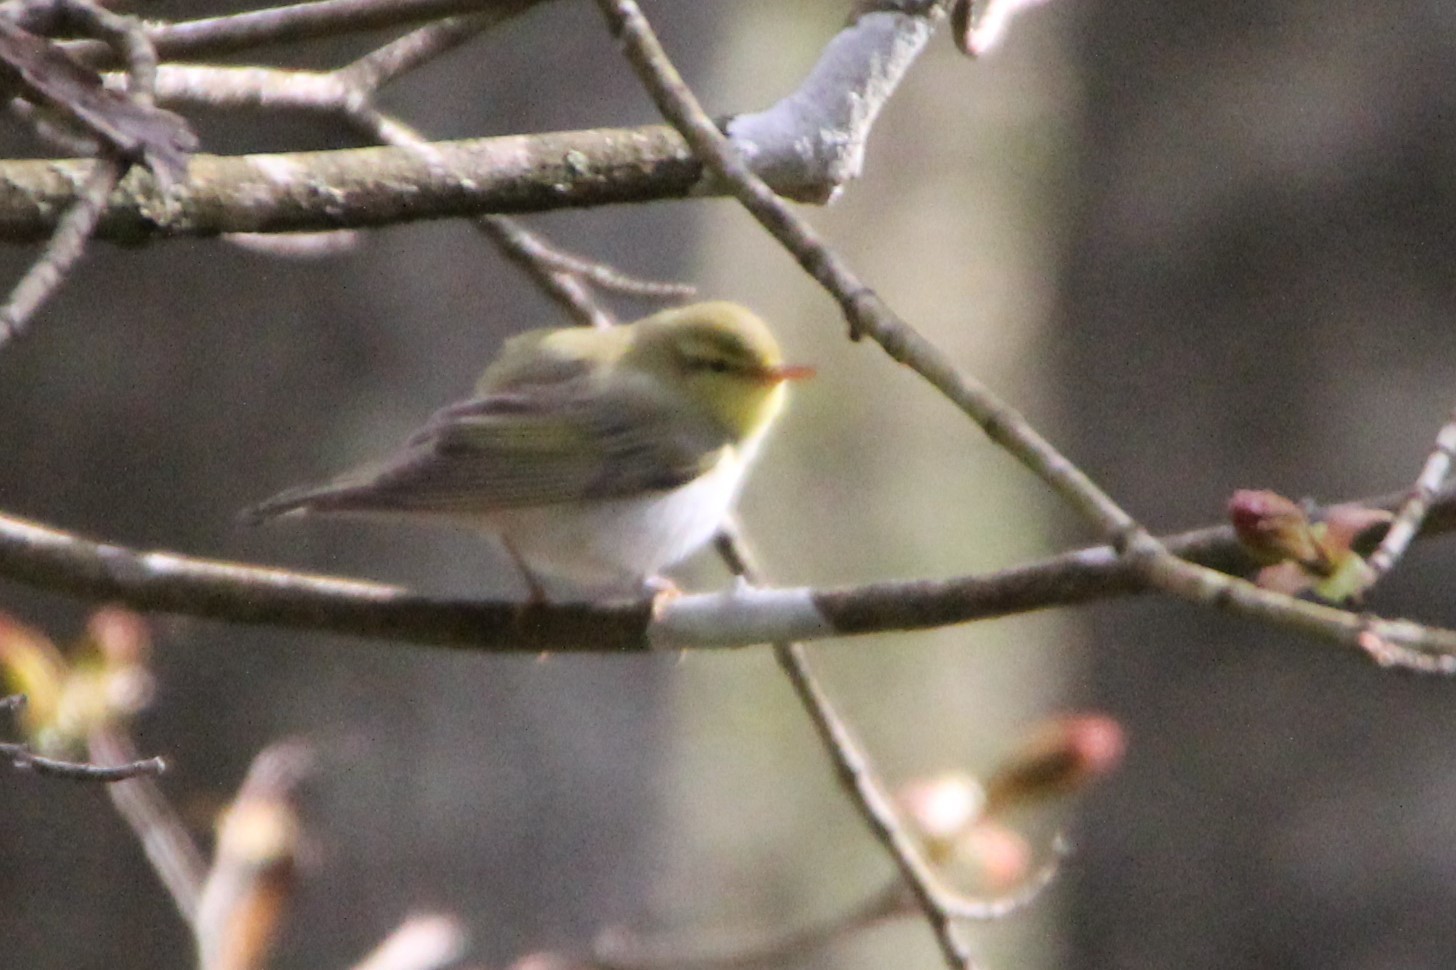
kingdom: Animalia
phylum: Chordata
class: Aves
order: Passeriformes
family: Phylloscopidae
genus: Phylloscopus
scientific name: Phylloscopus sibillatrix
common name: Wood warbler
